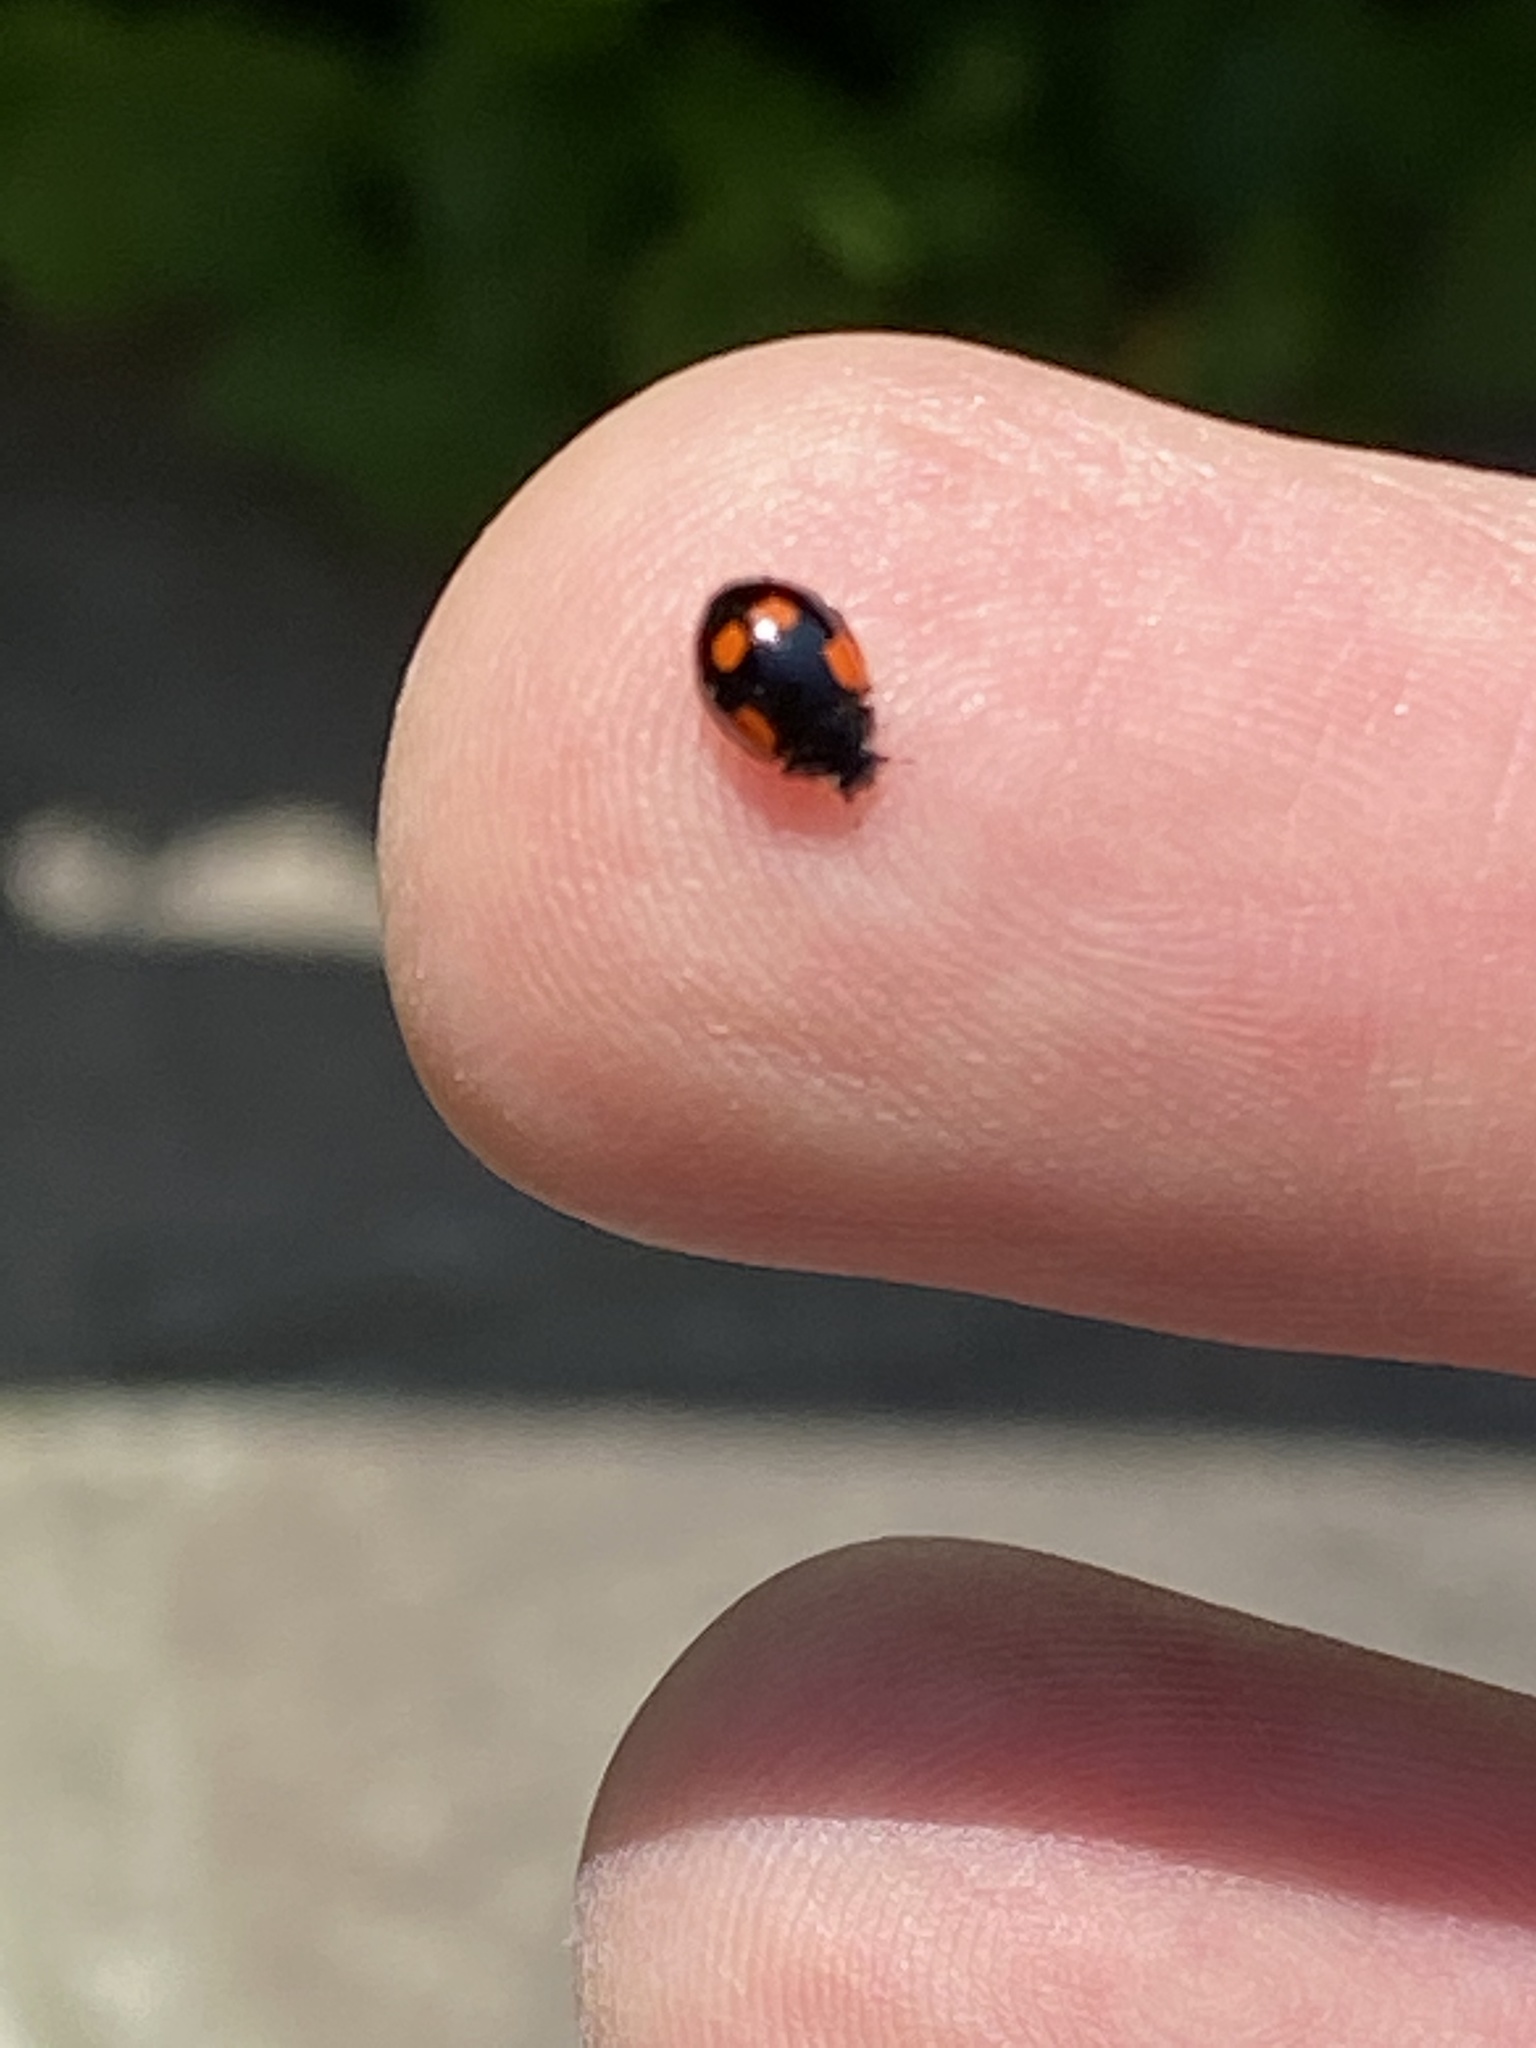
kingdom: Animalia
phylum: Arthropoda
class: Insecta
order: Coleoptera
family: Coccinellidae
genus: Adalia
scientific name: Adalia bipunctata
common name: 2-spot ladybird
